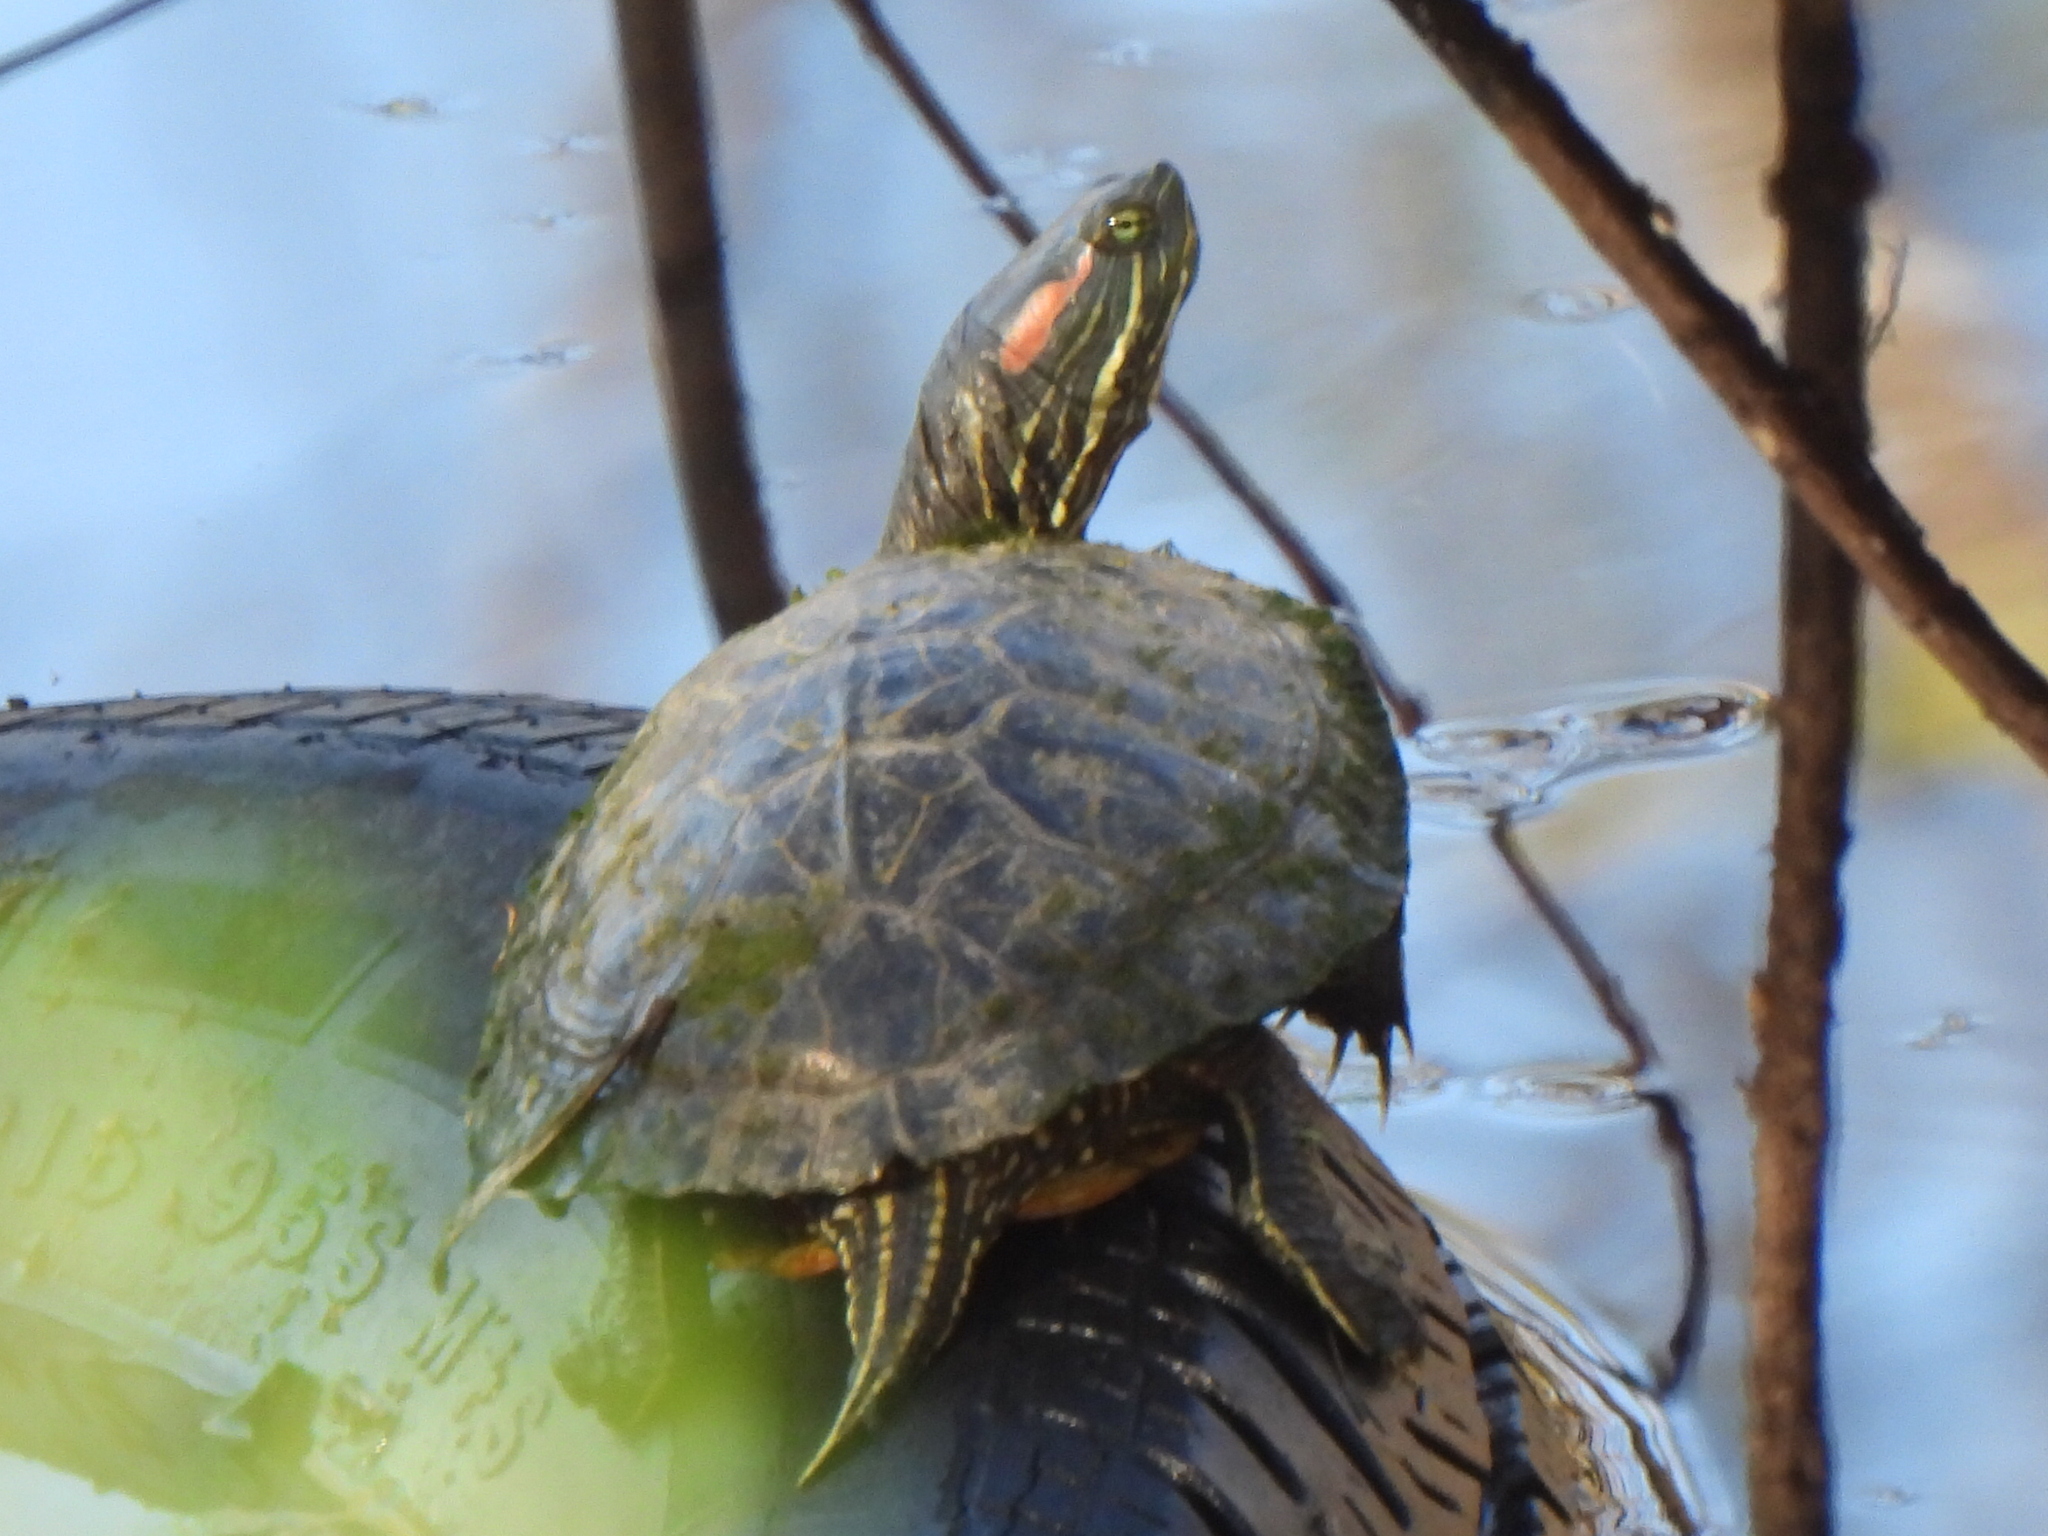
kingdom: Animalia
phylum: Chordata
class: Testudines
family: Emydidae
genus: Trachemys
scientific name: Trachemys scripta
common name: Slider
